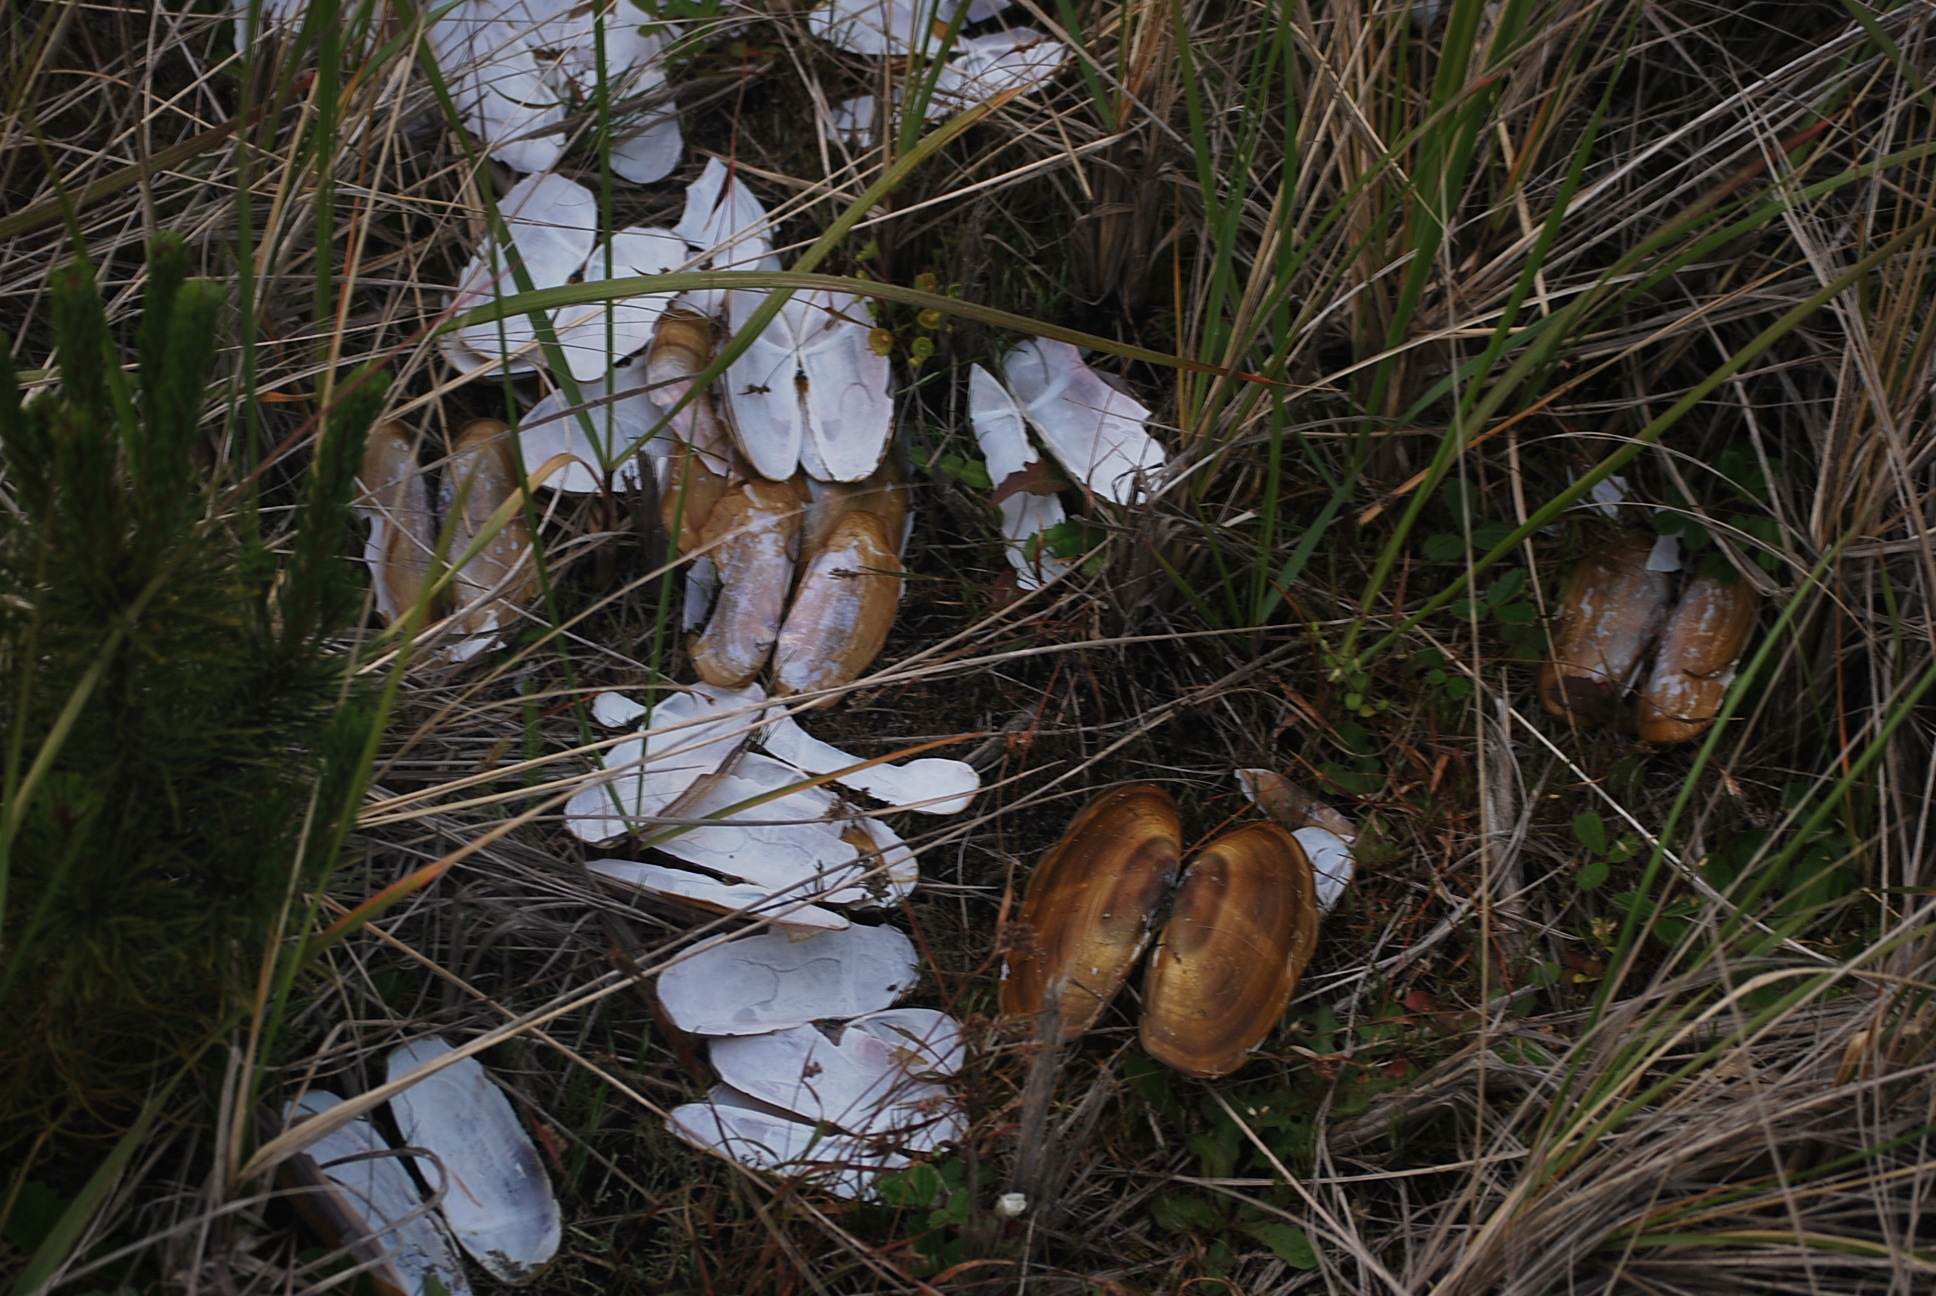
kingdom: Animalia
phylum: Mollusca
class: Bivalvia
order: Adapedonta
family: Pharidae
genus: Siliqua
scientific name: Siliqua patula
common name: Pacific razor clam
